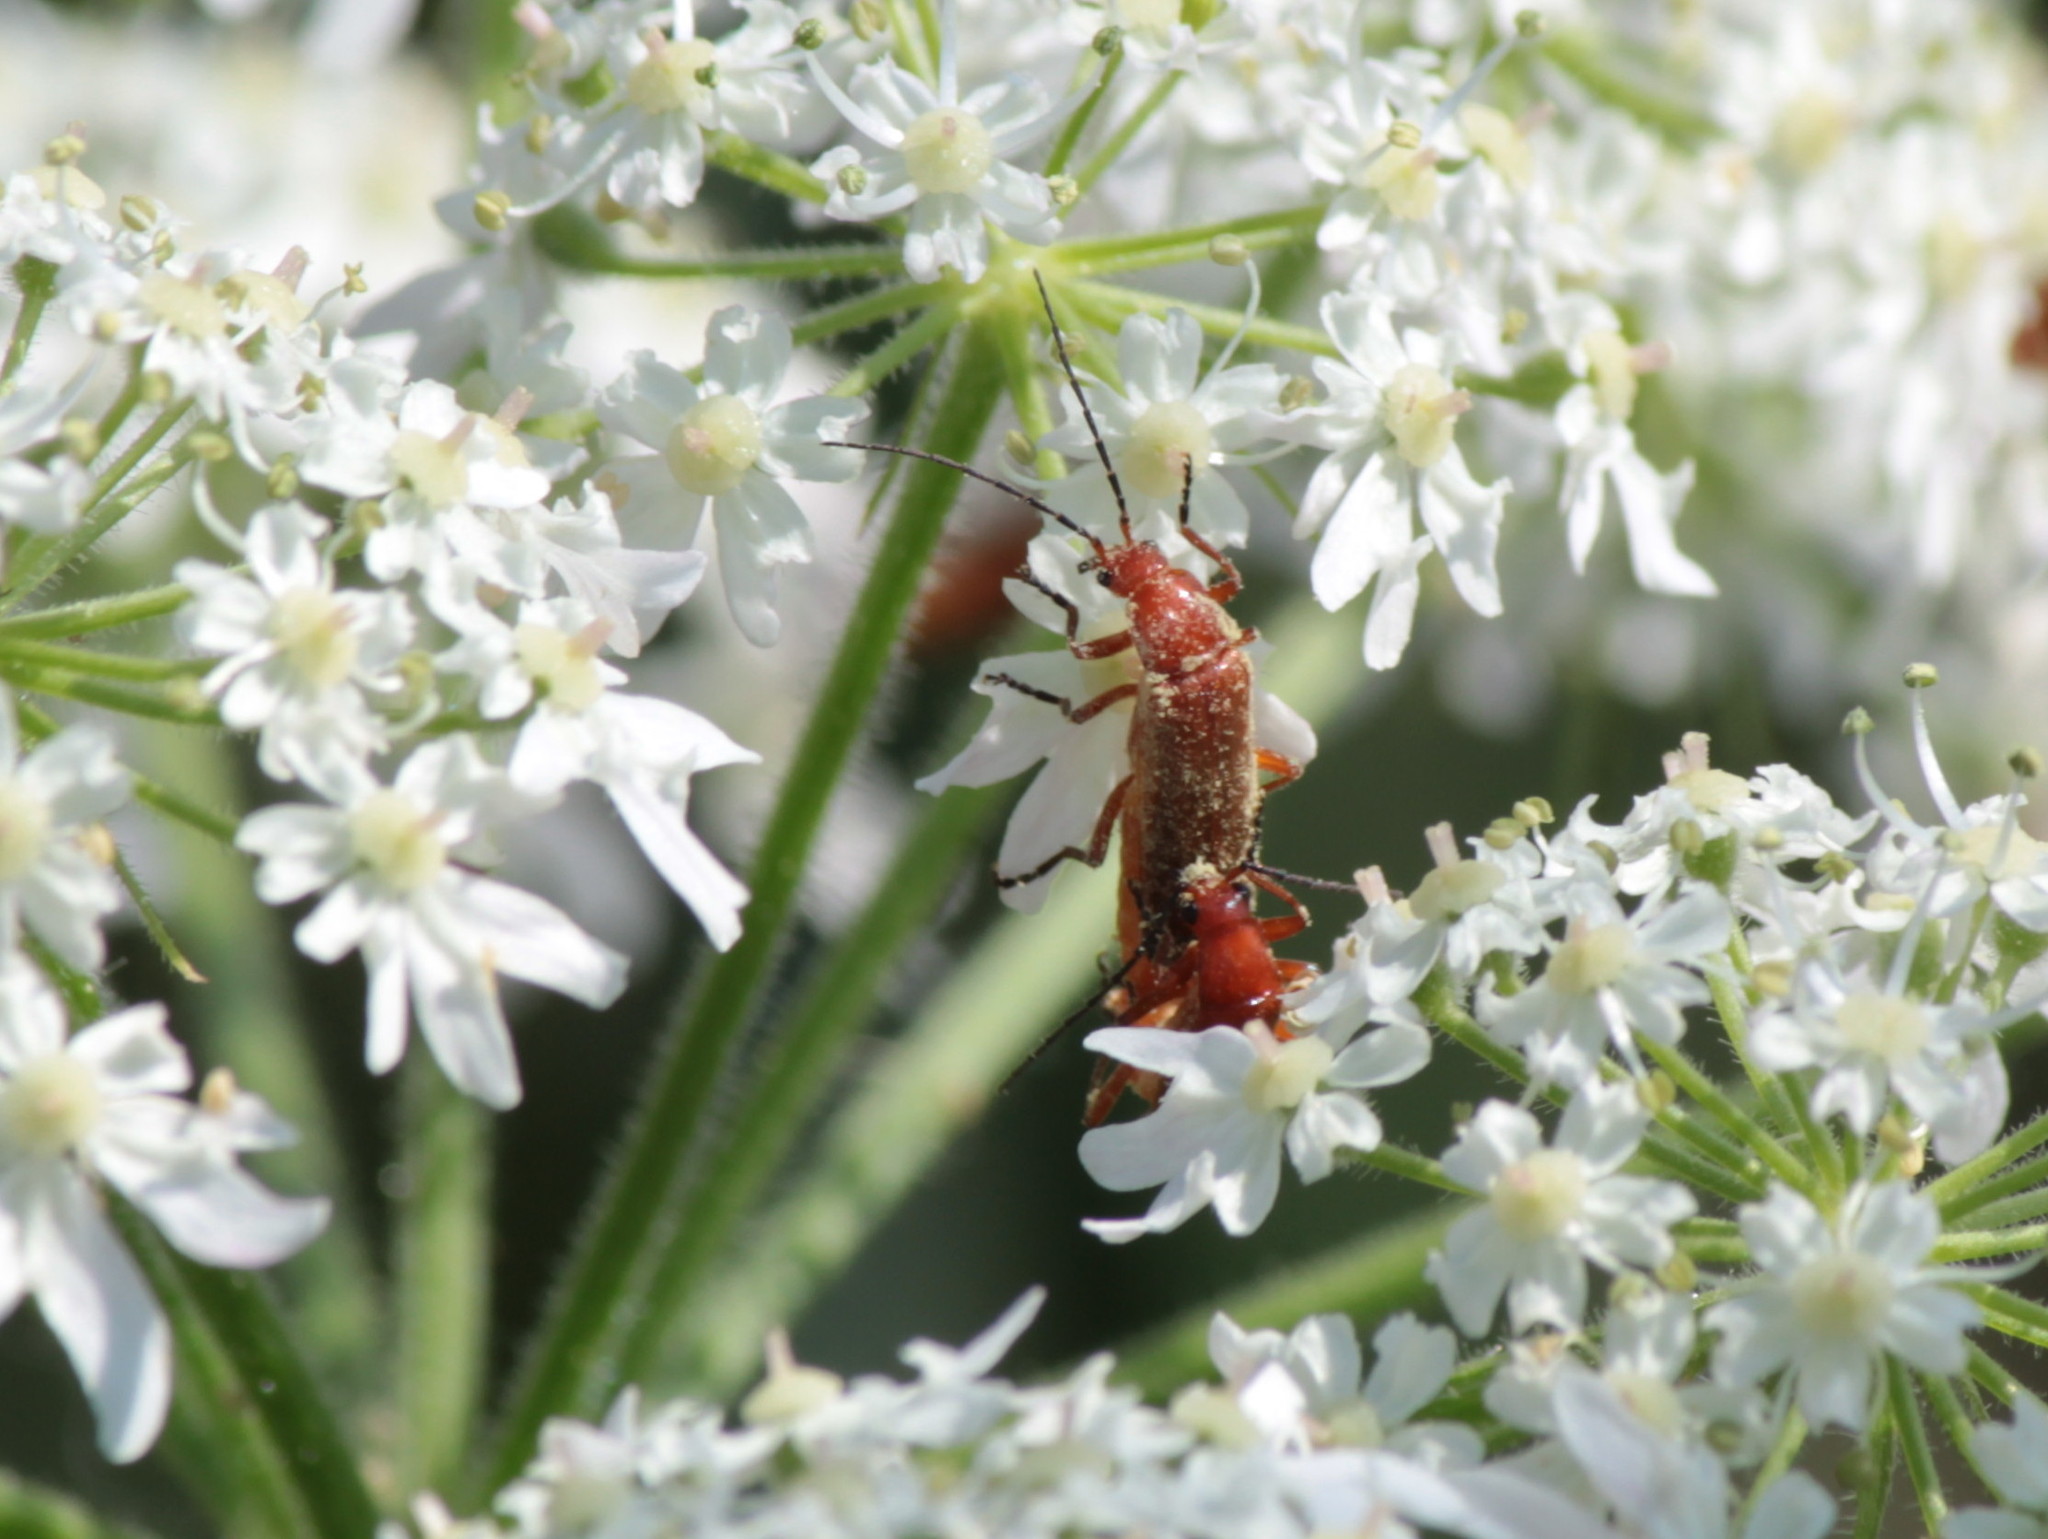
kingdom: Animalia
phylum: Arthropoda
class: Insecta
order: Coleoptera
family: Cantharidae
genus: Rhagonycha
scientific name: Rhagonycha fulva
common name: Common red soldier beetle
